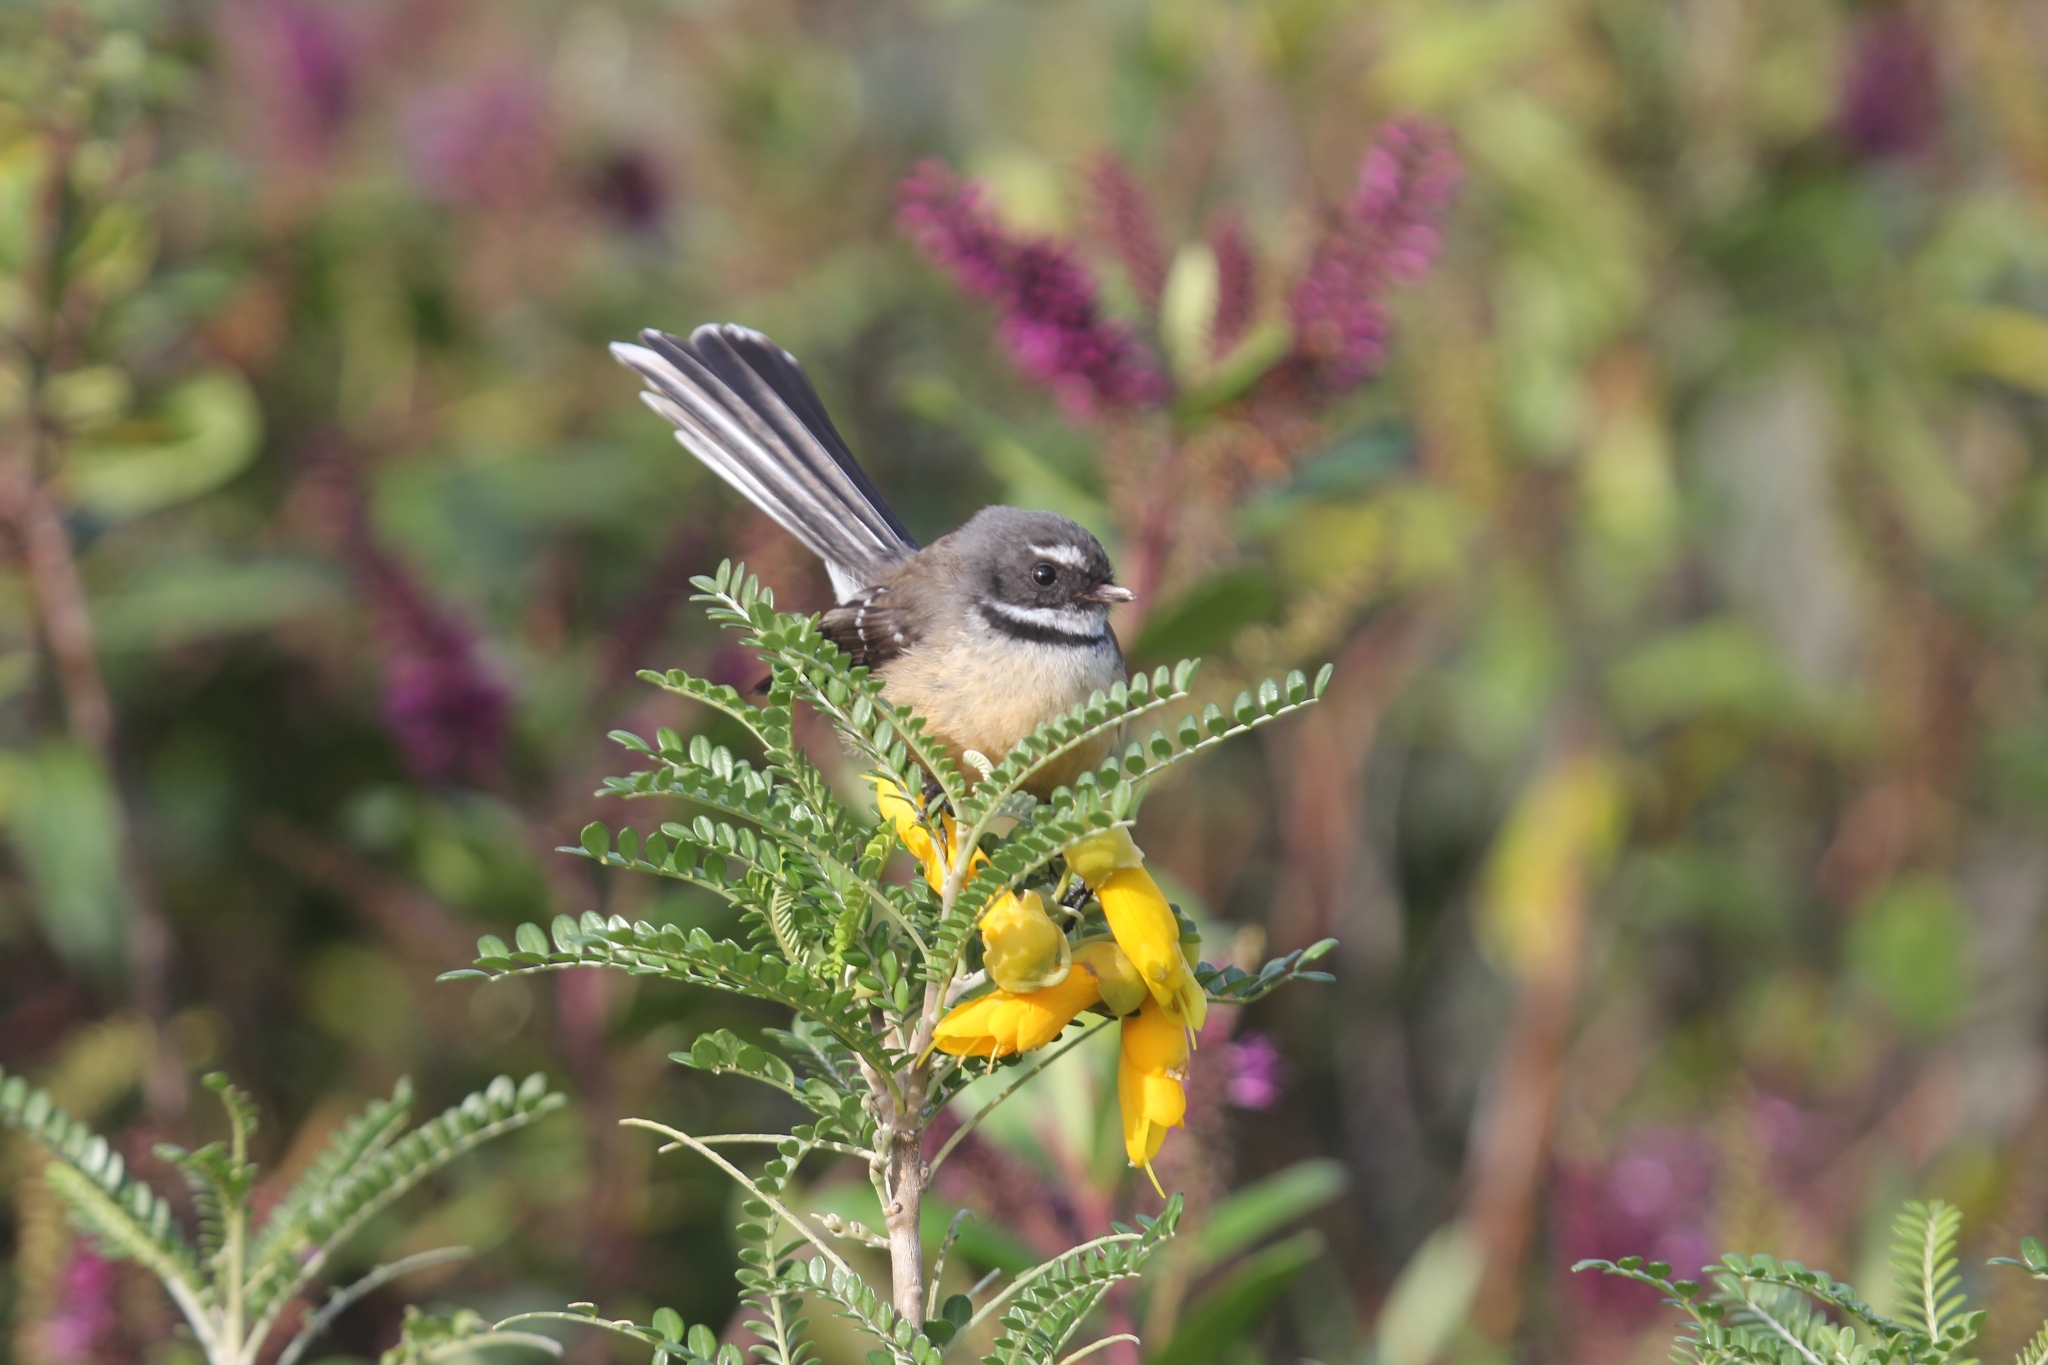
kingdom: Animalia
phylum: Chordata
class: Aves
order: Passeriformes
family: Rhipiduridae
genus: Rhipidura
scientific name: Rhipidura fuliginosa
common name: New zealand fantail
